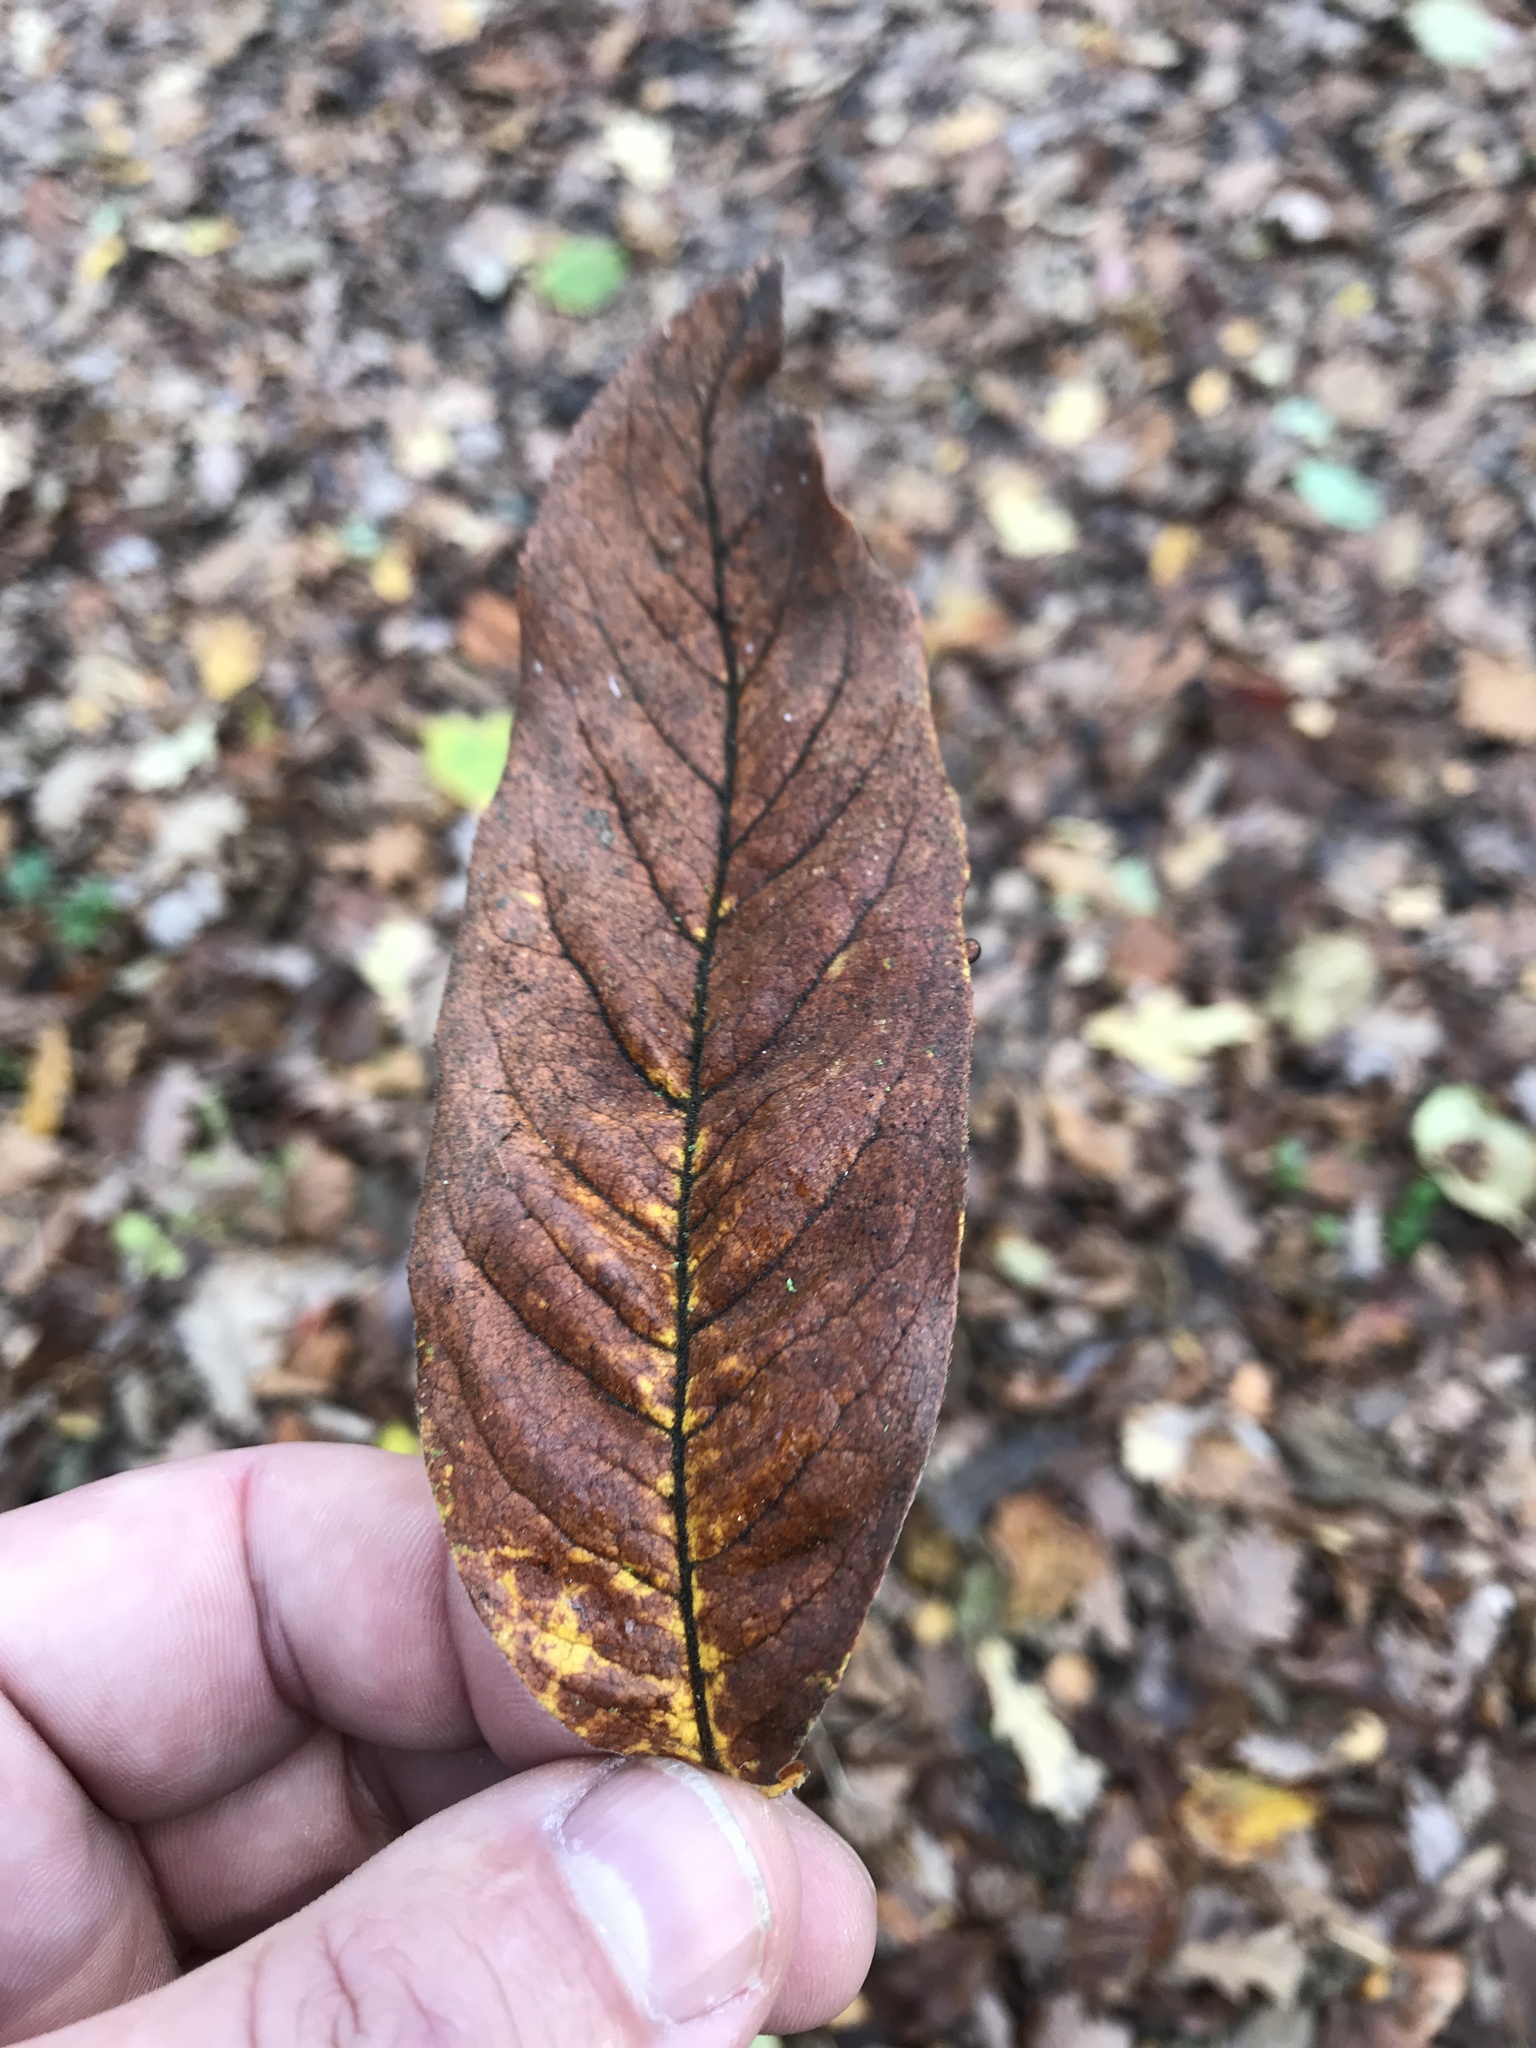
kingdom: Plantae
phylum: Tracheophyta
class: Magnoliopsida
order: Rosales
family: Rosaceae
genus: Mespilus
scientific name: Mespilus germanica
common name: Medlar
